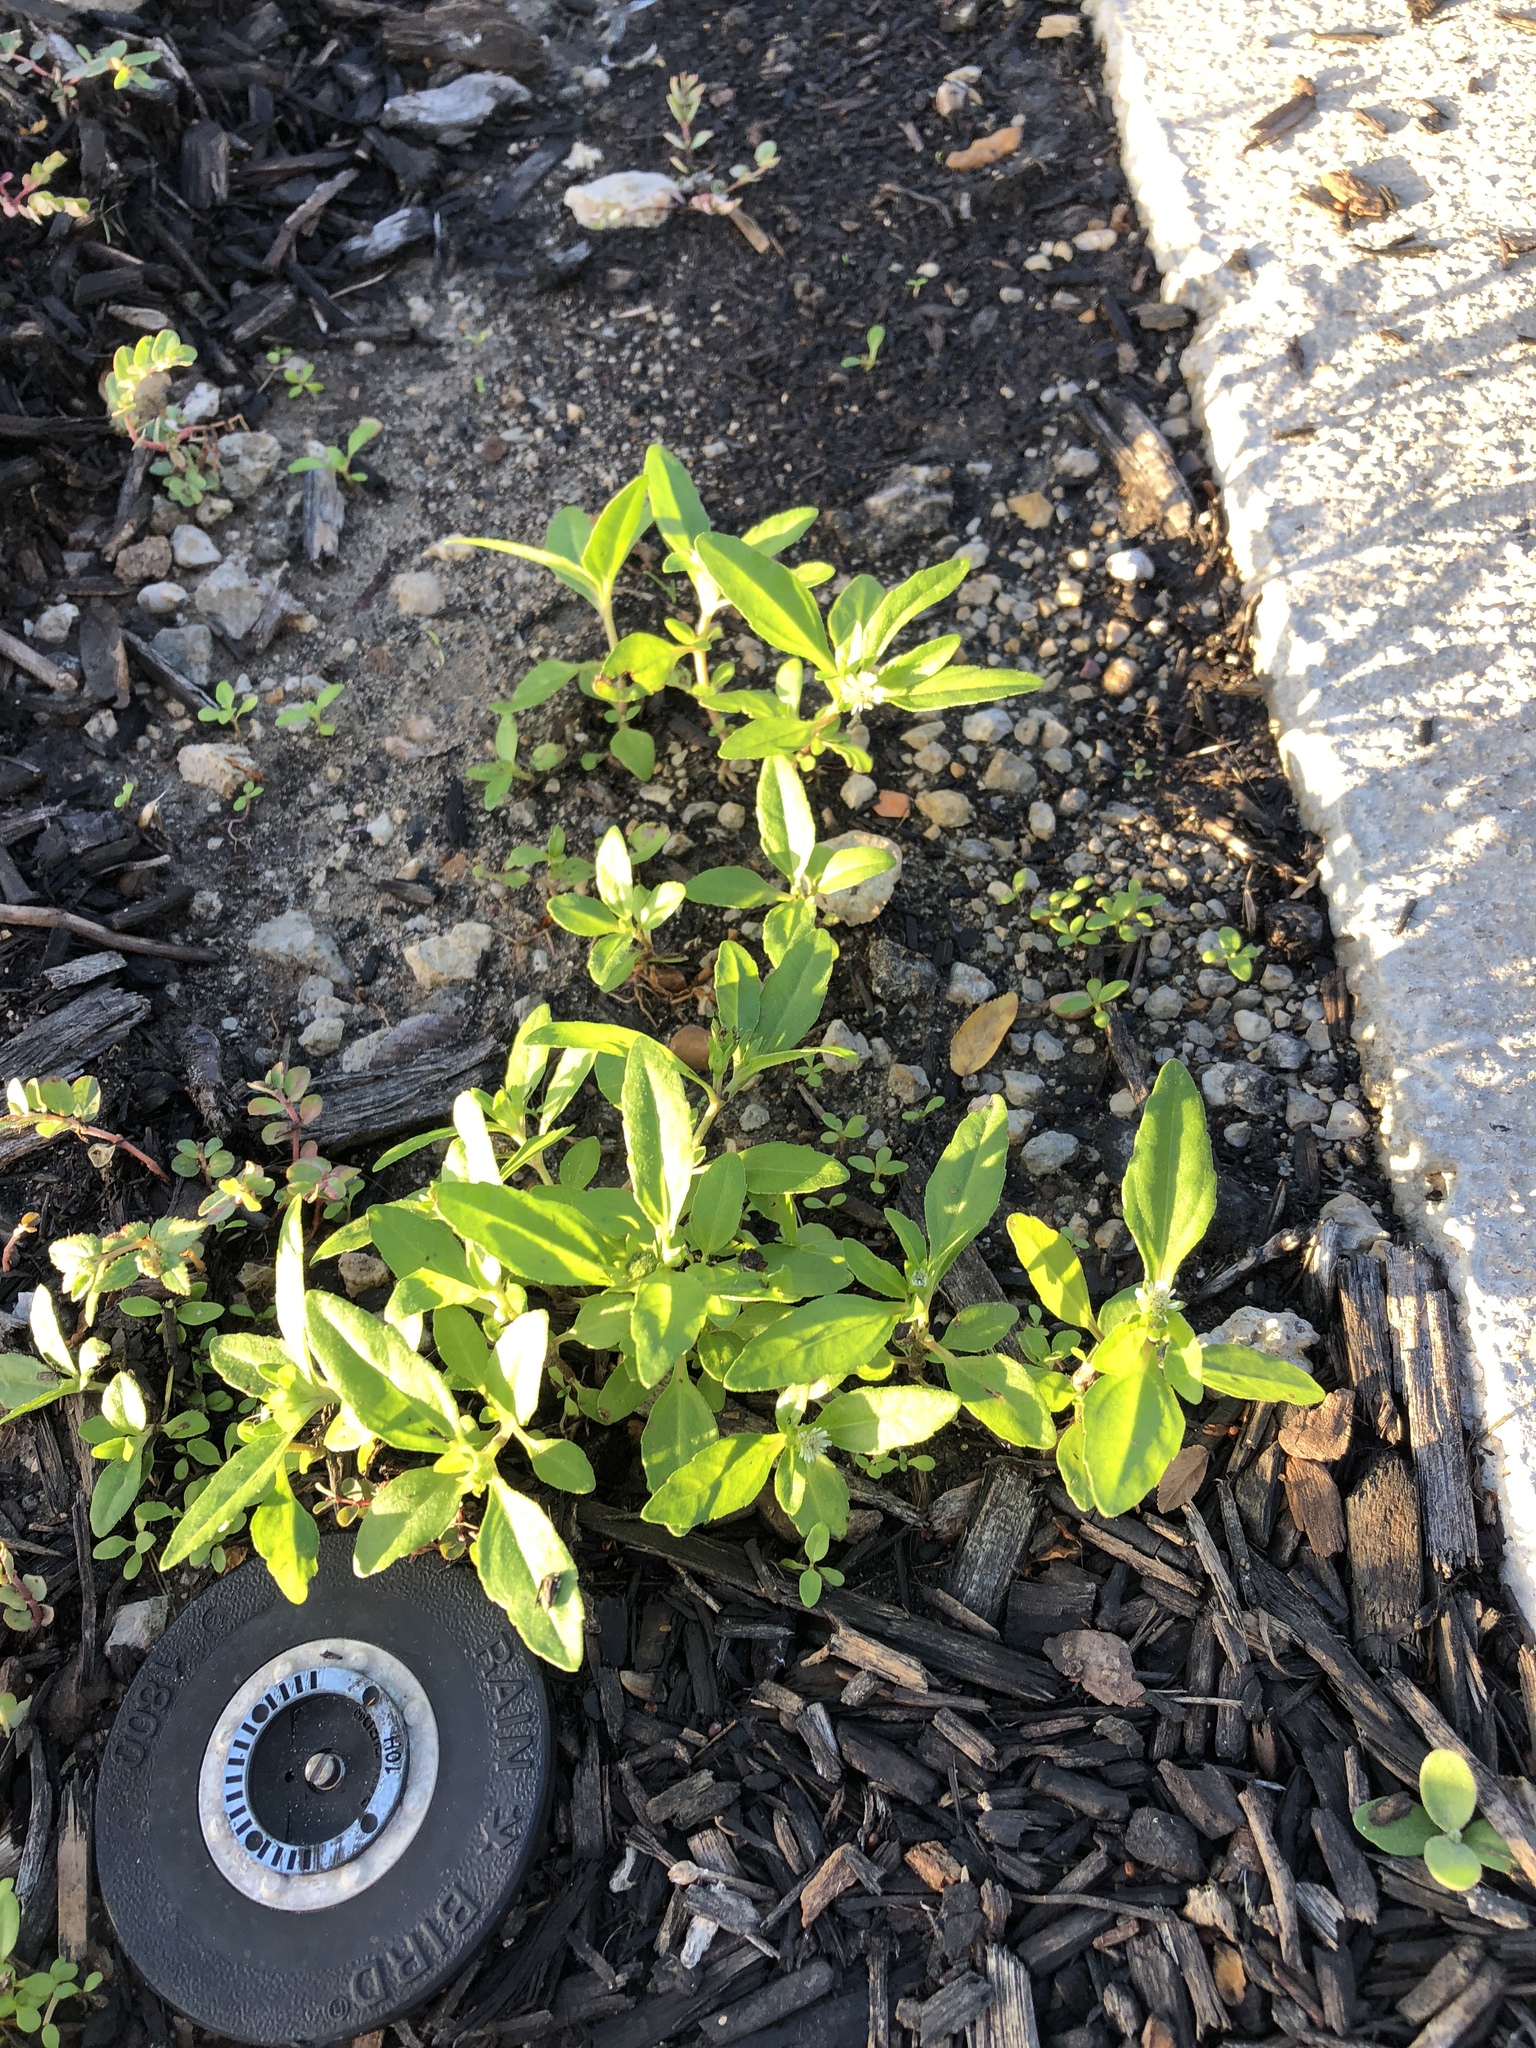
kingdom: Plantae
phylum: Tracheophyta
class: Magnoliopsida
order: Asterales
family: Asteraceae
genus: Eclipta
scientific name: Eclipta prostrata
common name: False daisy
